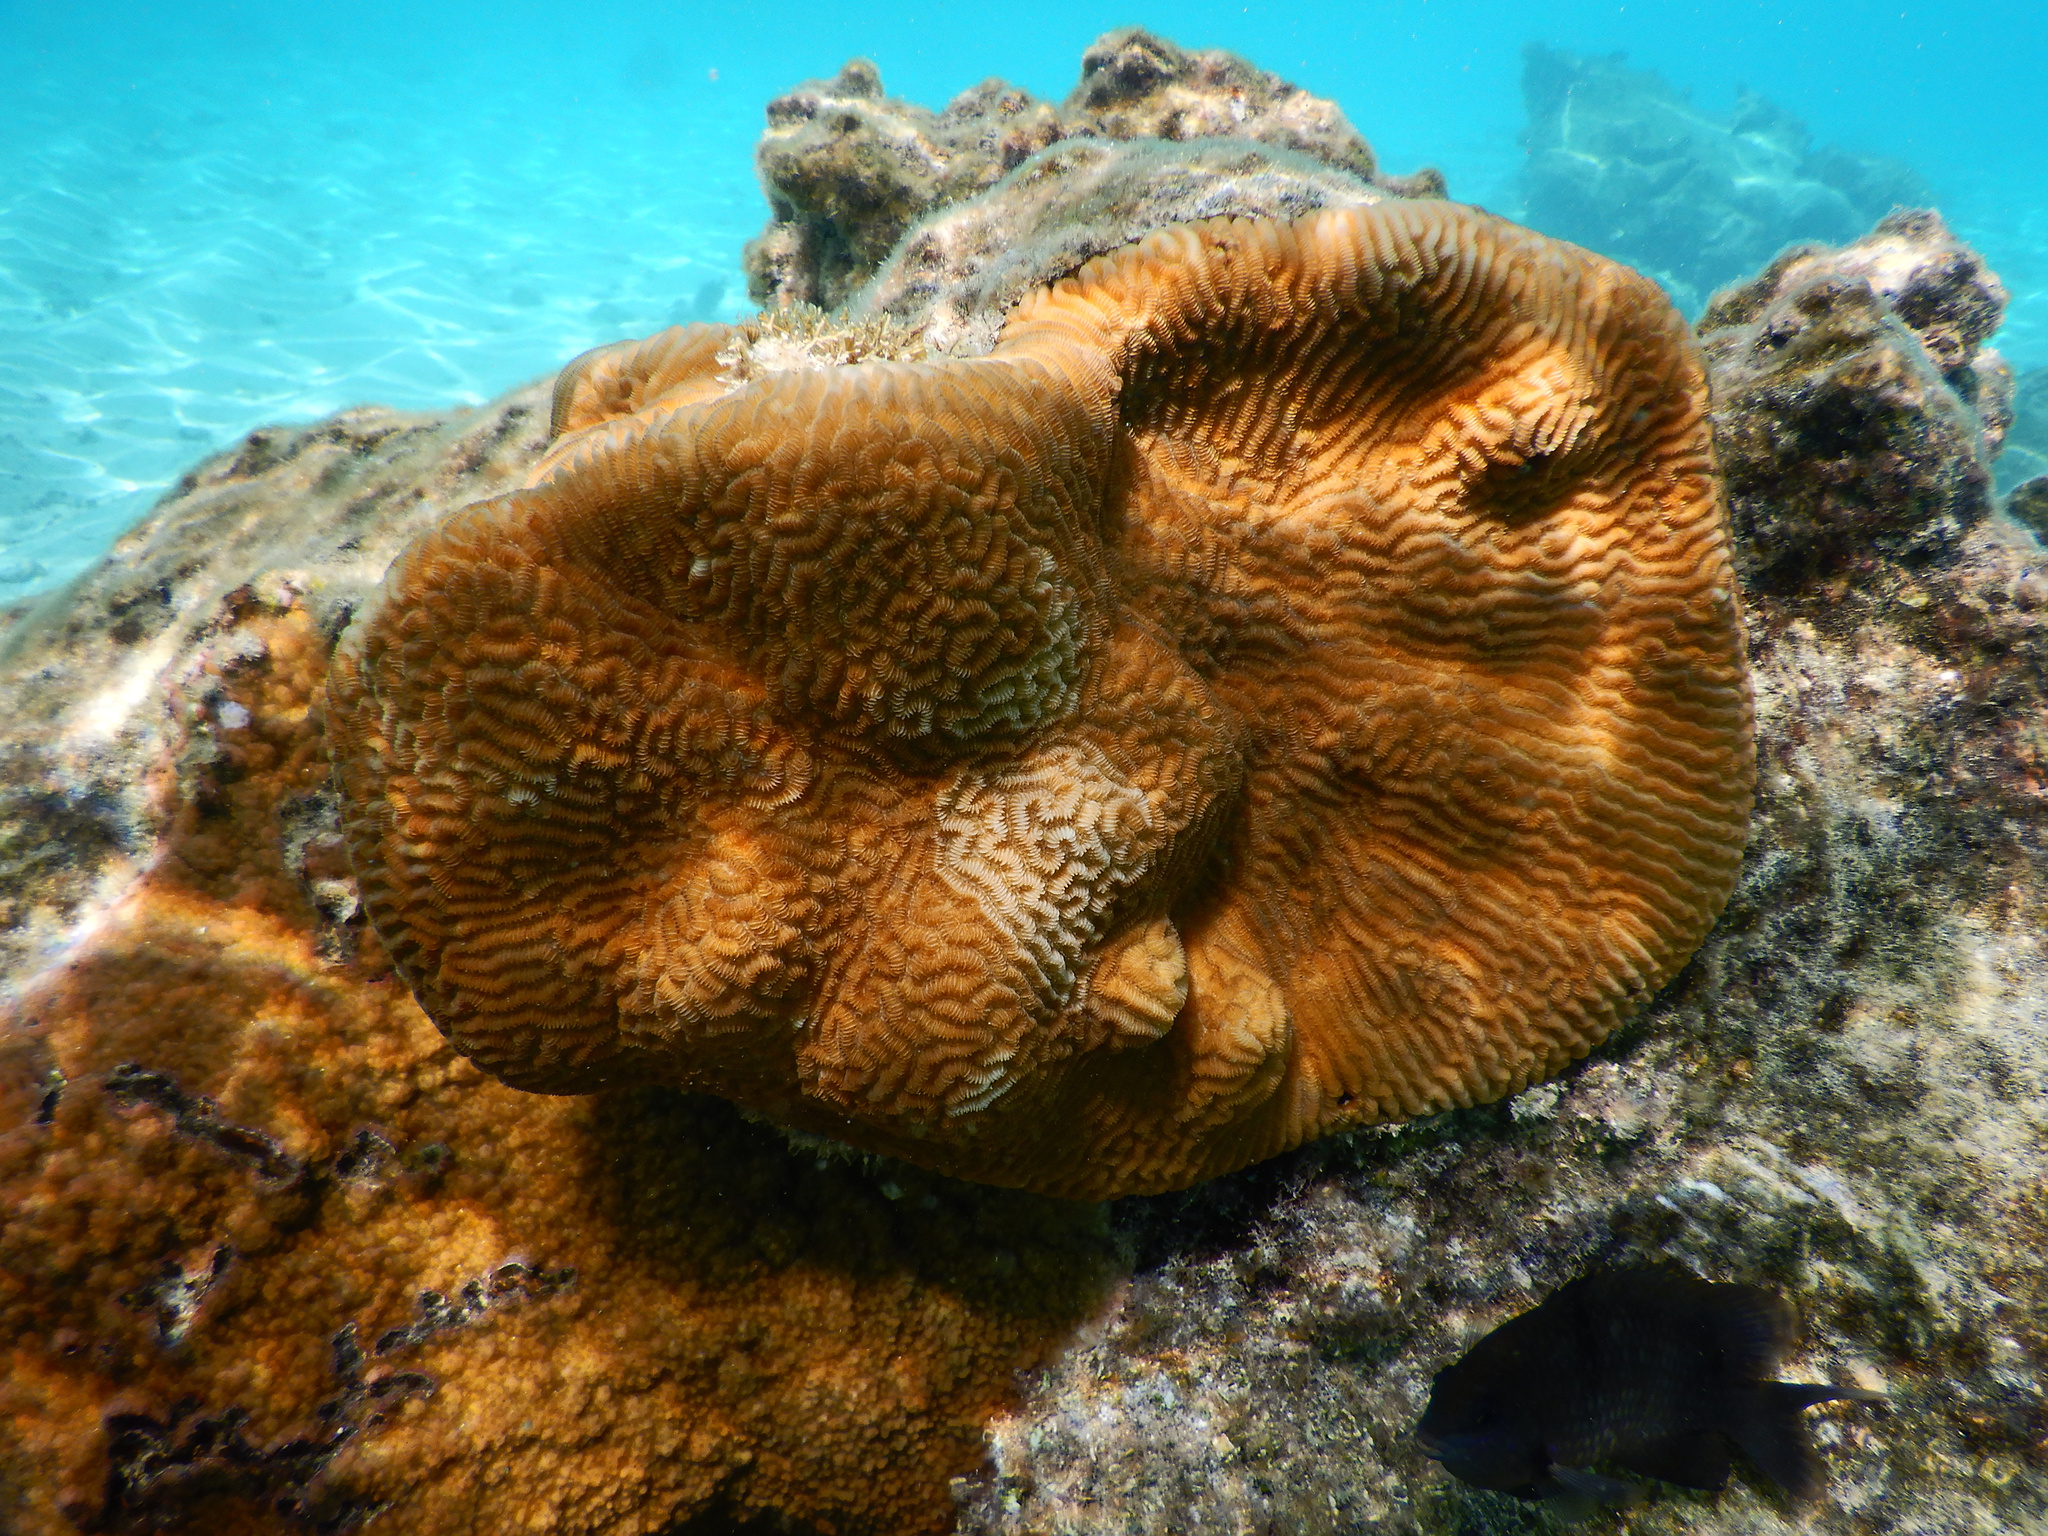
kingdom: Animalia
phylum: Cnidaria
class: Anthozoa
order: Scleractinia
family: Merulinidae
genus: Leptoria
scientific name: Leptoria phrygia
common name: Least valley coral
